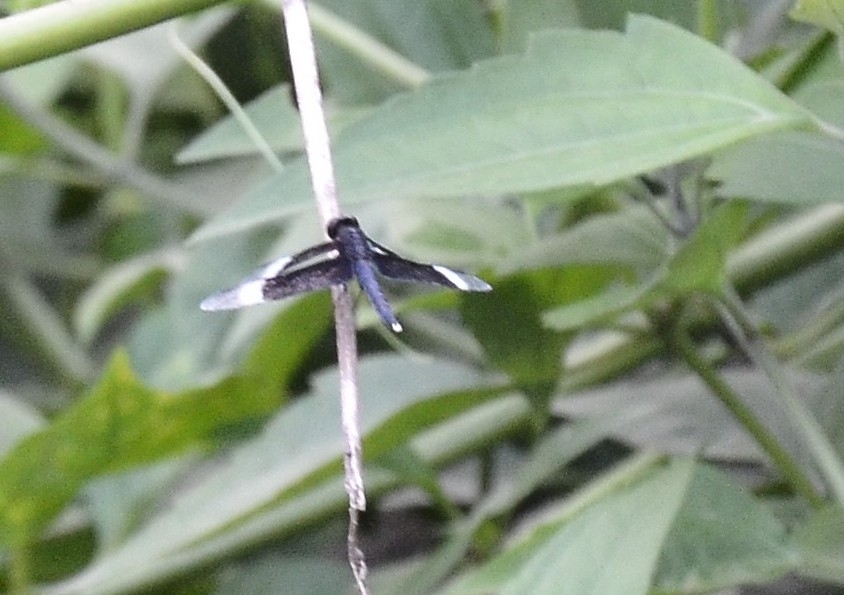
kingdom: Animalia
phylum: Arthropoda
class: Insecta
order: Odonata
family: Libellulidae
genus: Neurothemis
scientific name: Neurothemis tullia
